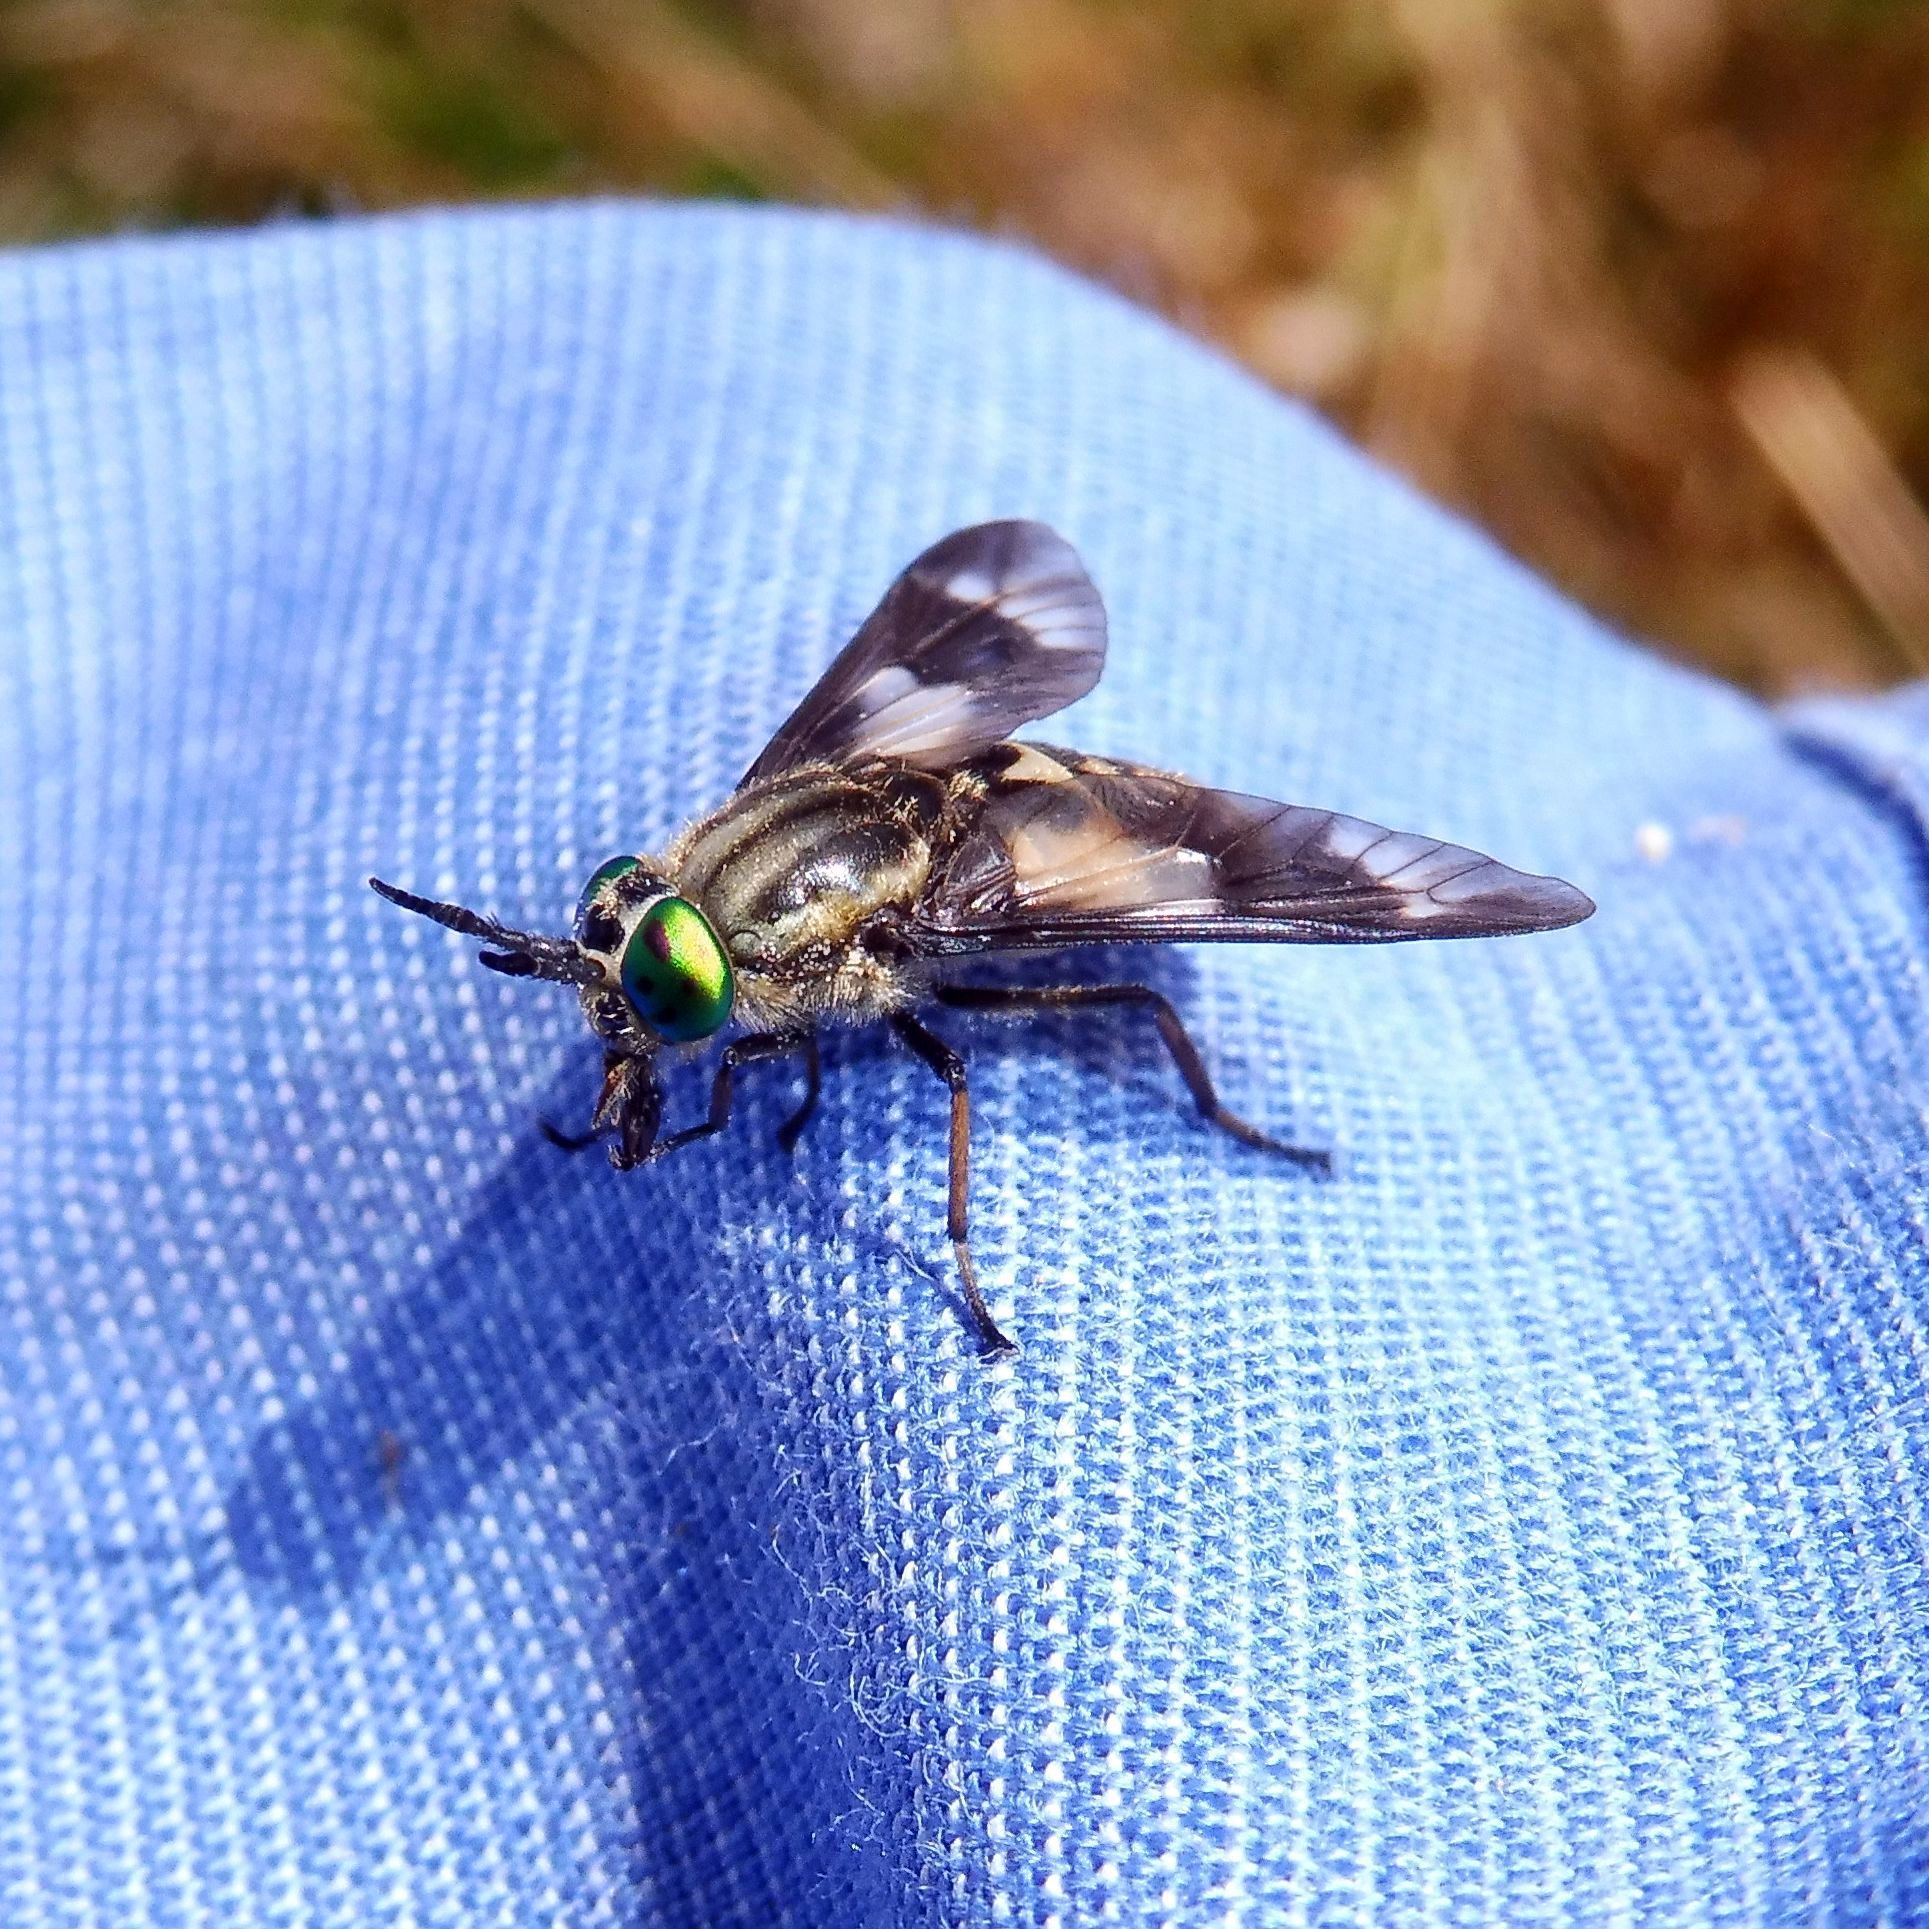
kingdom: Animalia
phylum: Arthropoda
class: Insecta
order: Diptera
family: Tabanidae
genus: Chrysops
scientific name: Chrysops relictus
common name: Twin-lobed deerfly
